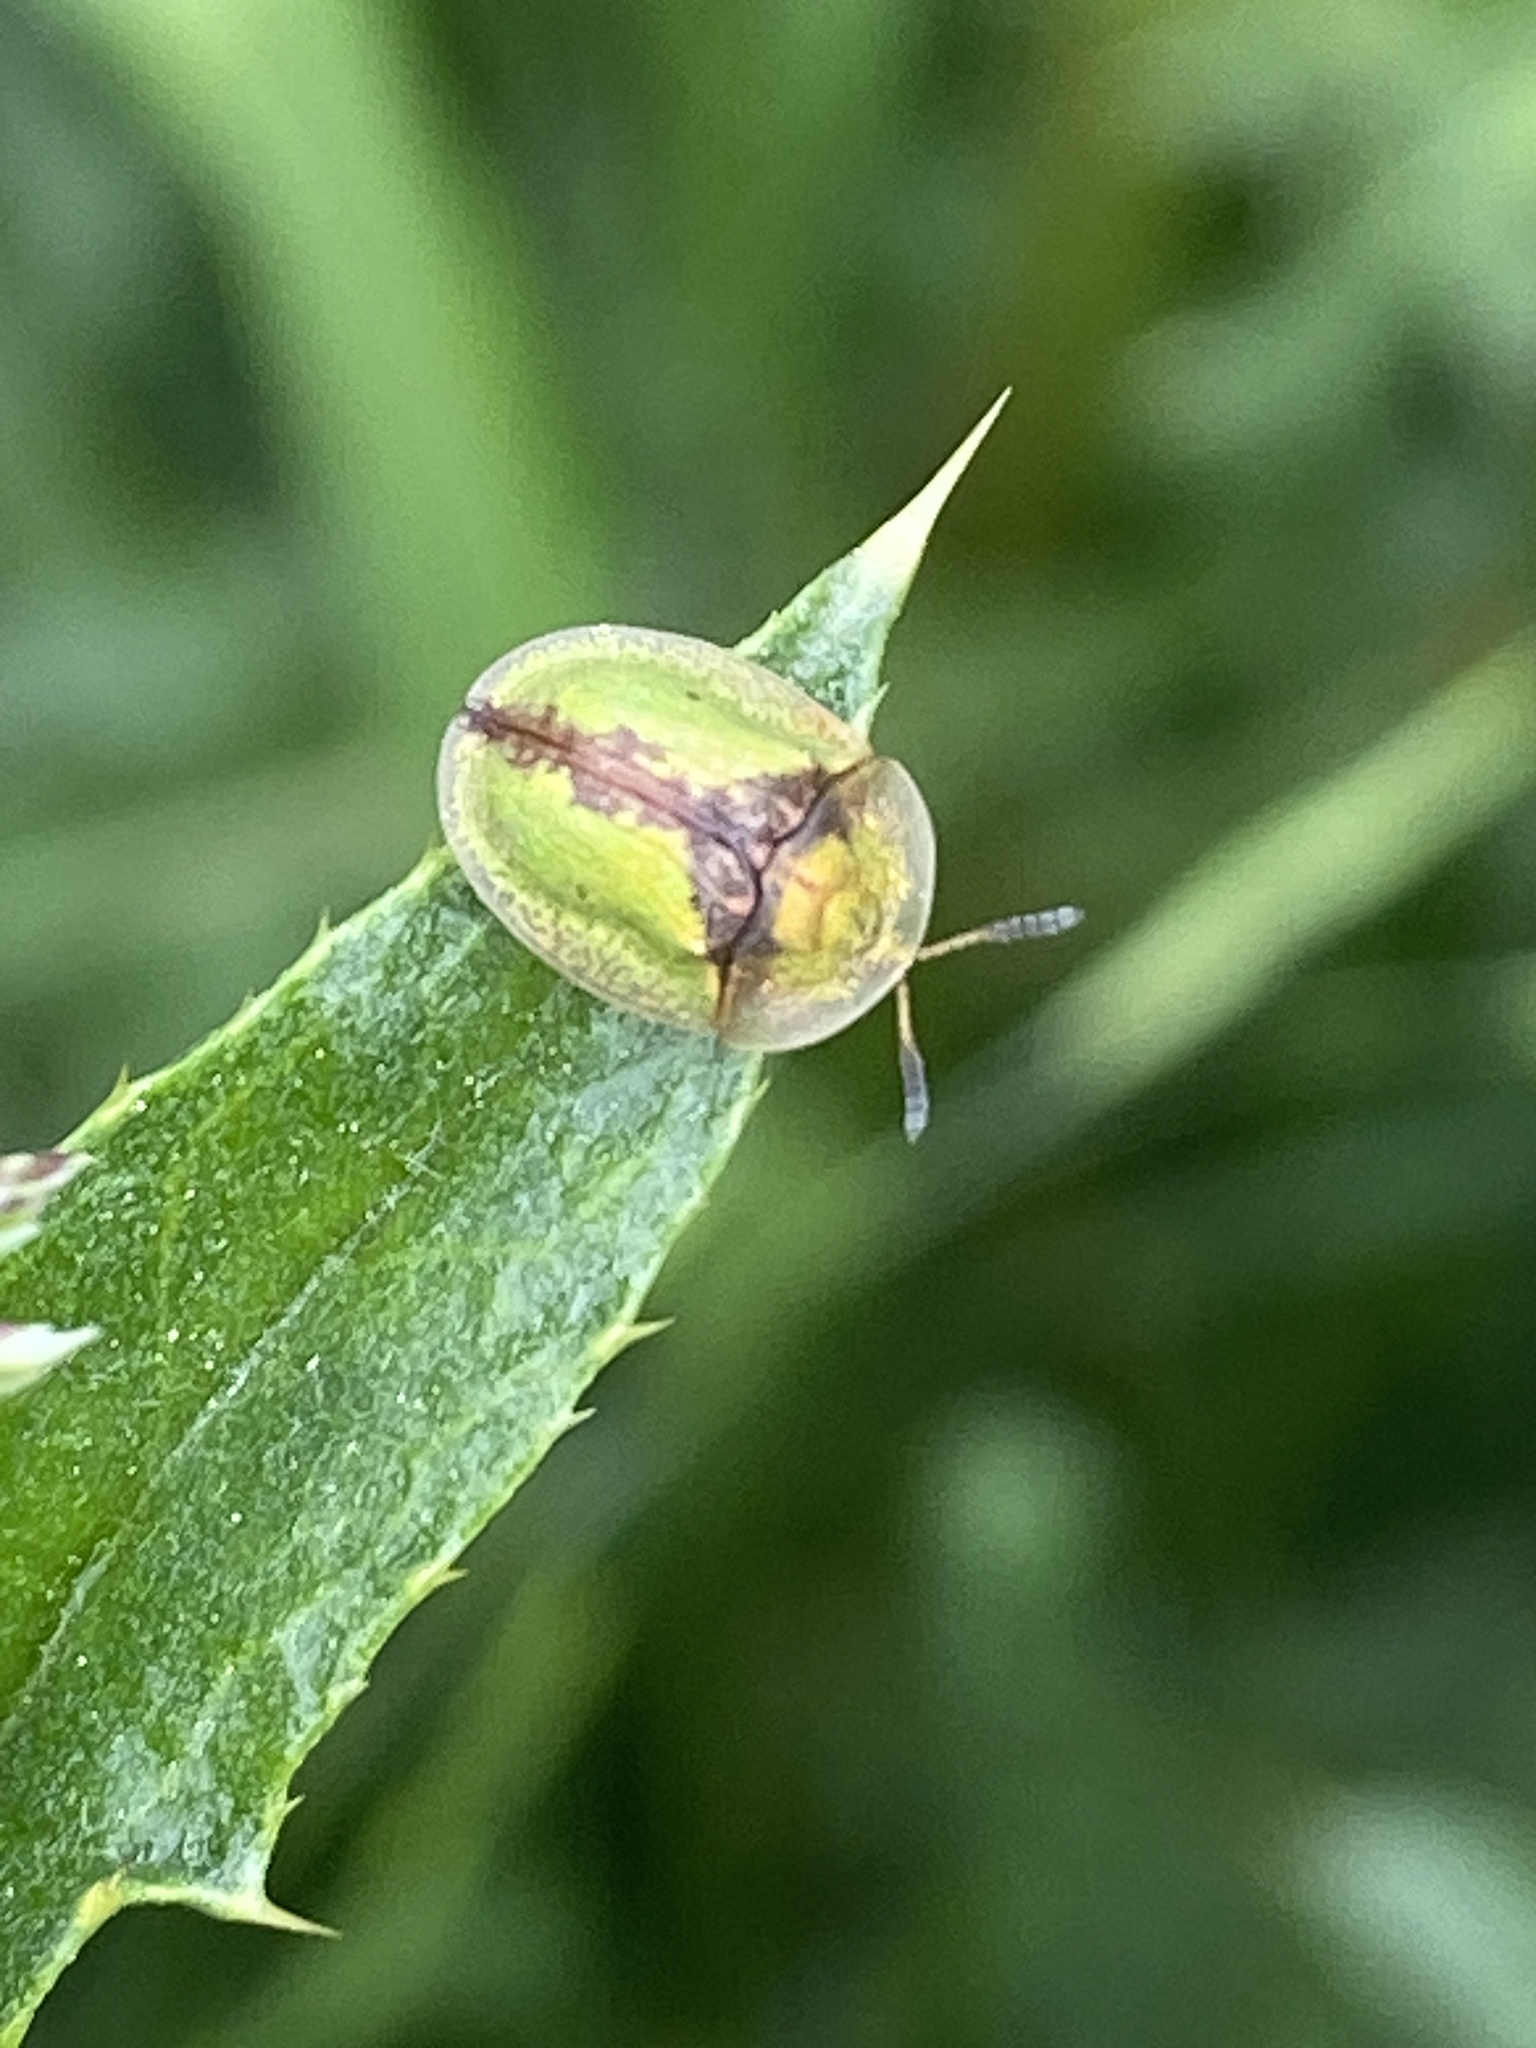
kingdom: Animalia
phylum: Arthropoda
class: Insecta
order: Coleoptera
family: Chrysomelidae
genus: Cassida
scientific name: Cassida vibex
